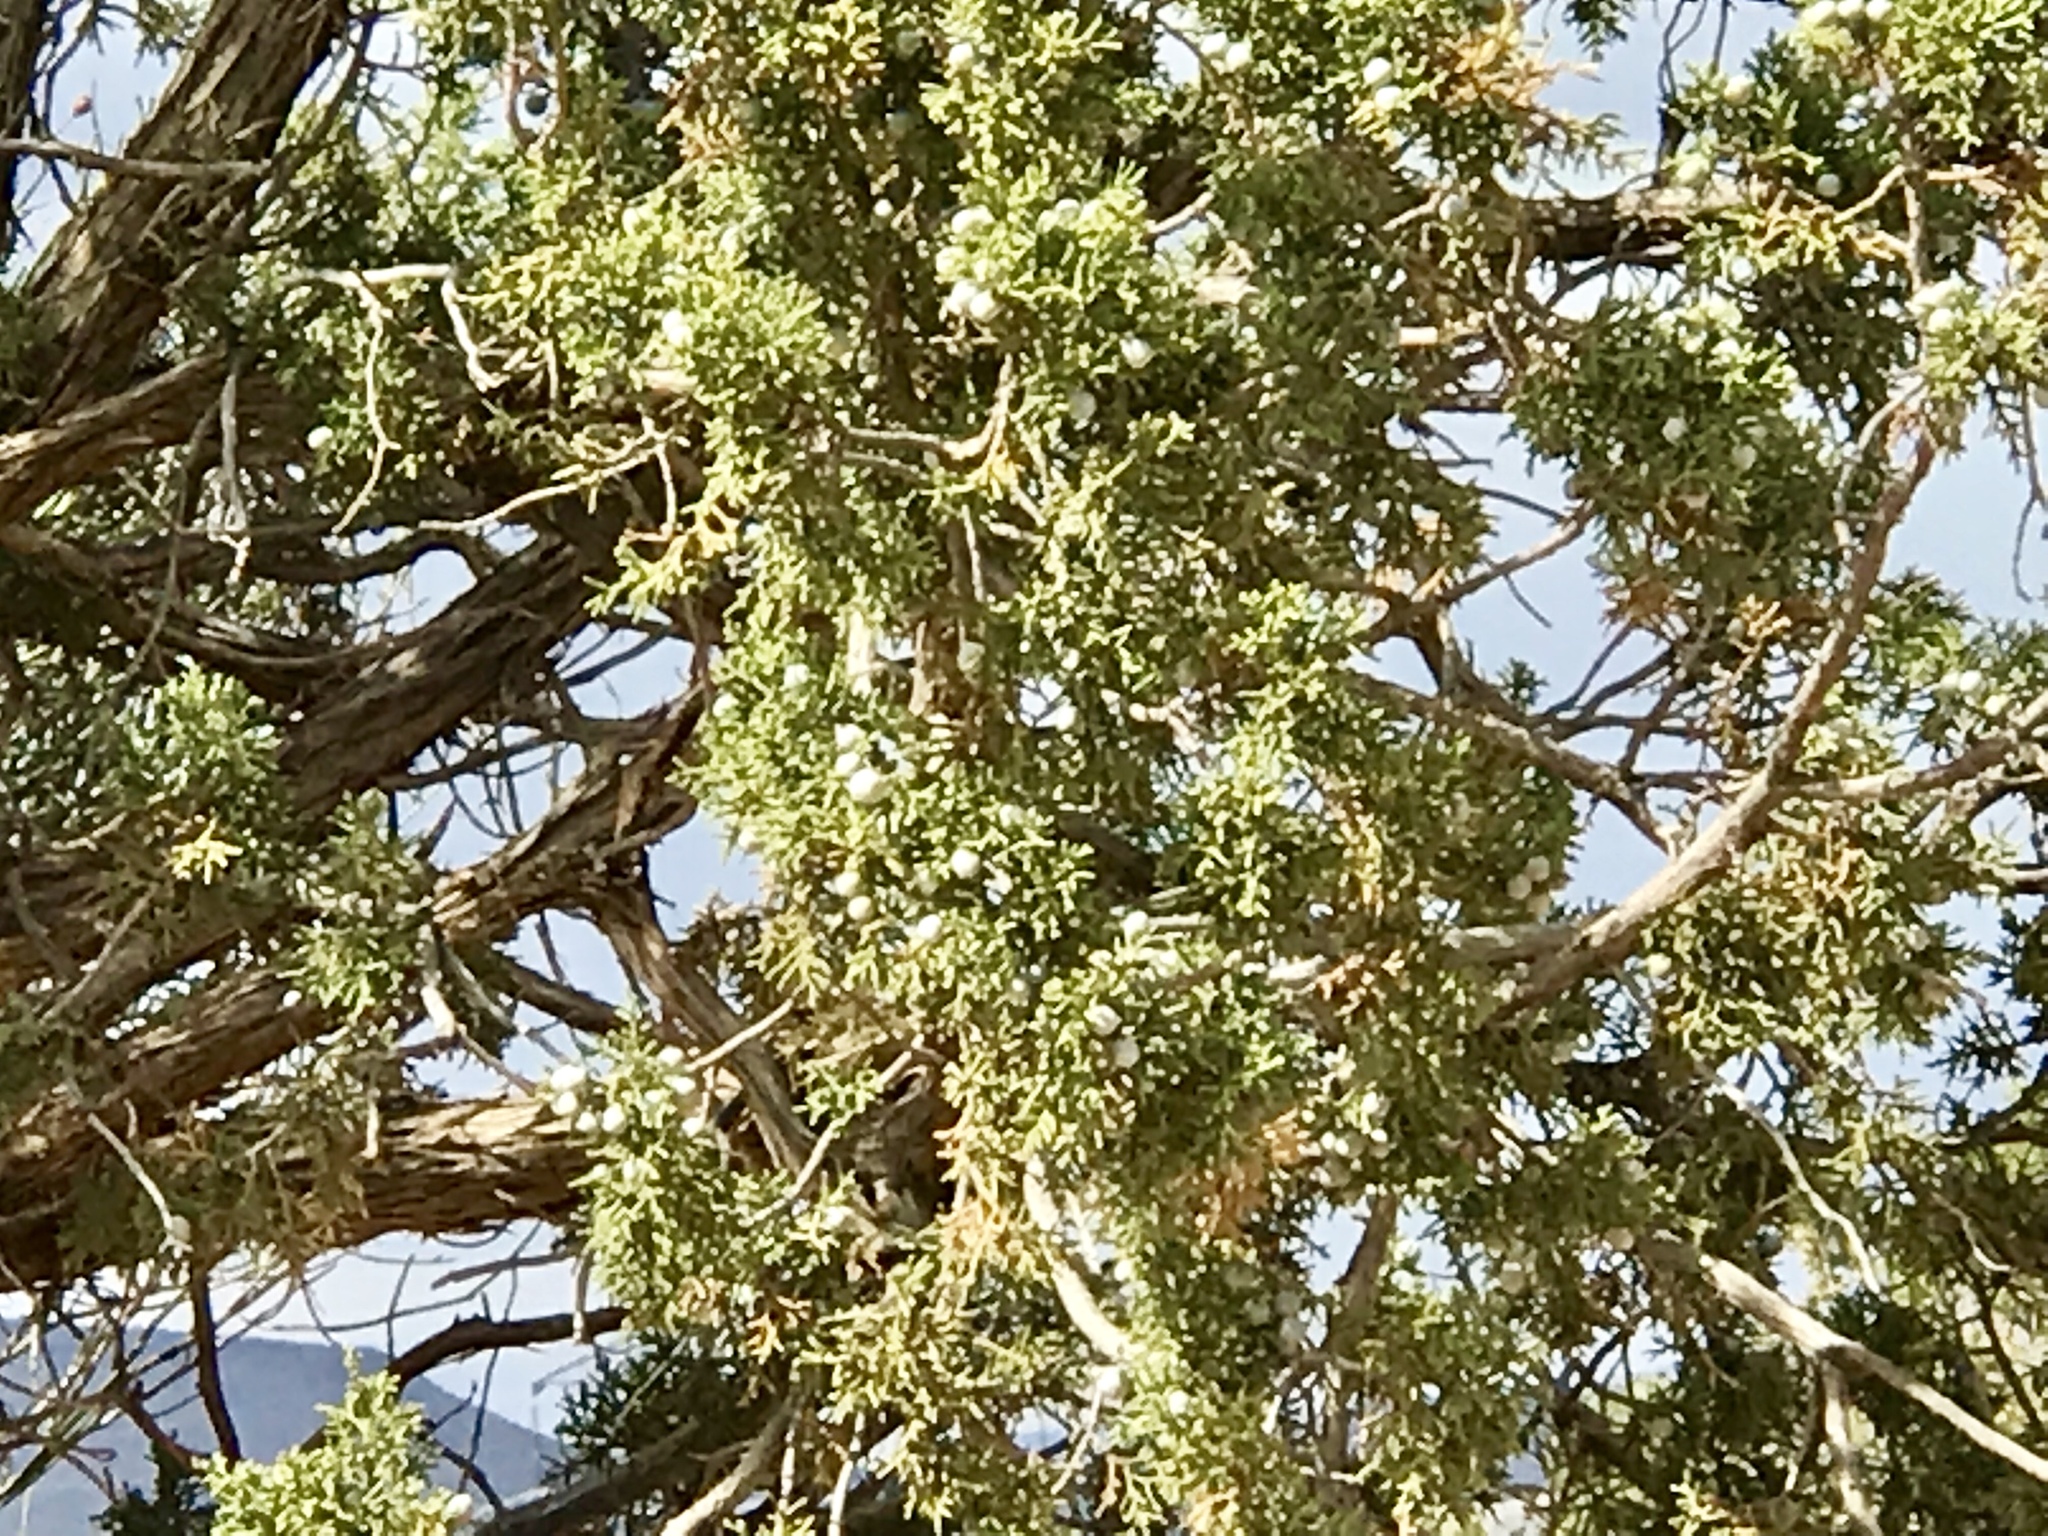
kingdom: Plantae
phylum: Tracheophyta
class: Pinopsida
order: Pinales
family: Cupressaceae
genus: Juniperus
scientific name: Juniperus osteosperma
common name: Utah juniper
